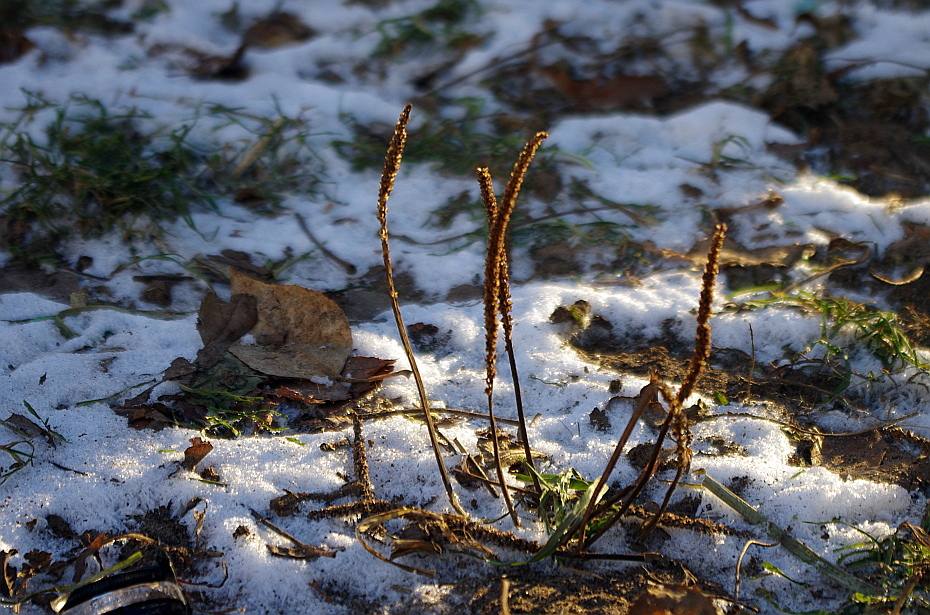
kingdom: Plantae
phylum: Tracheophyta
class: Magnoliopsida
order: Lamiales
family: Plantaginaceae
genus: Plantago
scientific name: Plantago major
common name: Common plantain
